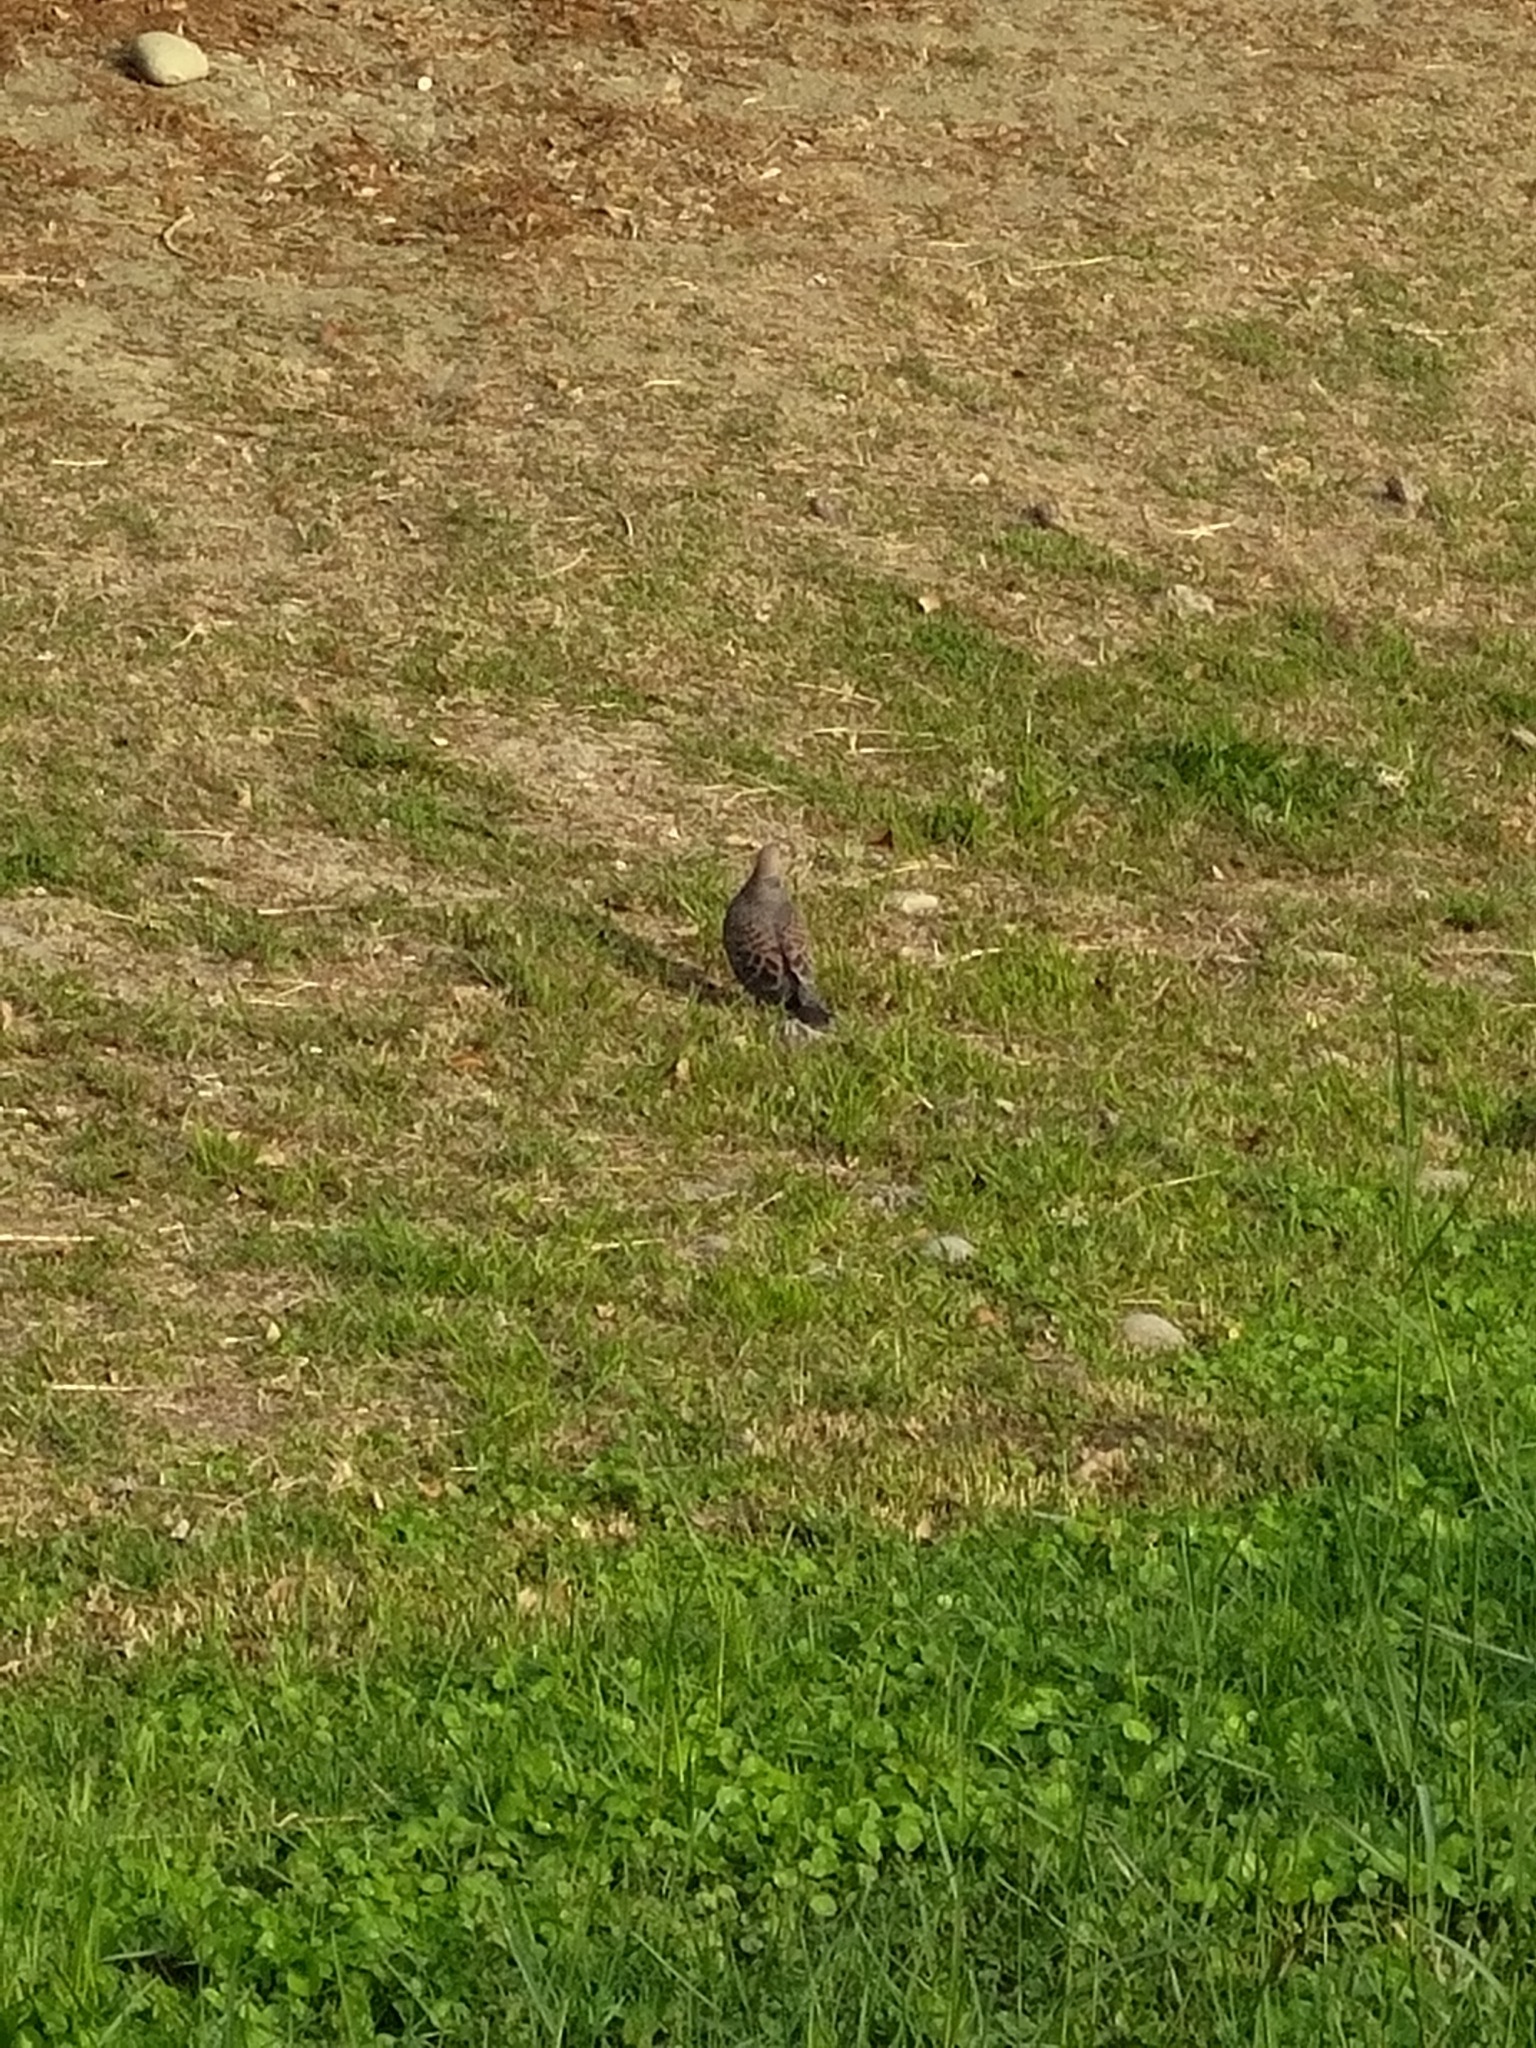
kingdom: Animalia
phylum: Chordata
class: Aves
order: Columbiformes
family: Columbidae
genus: Streptopelia
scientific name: Streptopelia orientalis
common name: Oriental turtle dove
